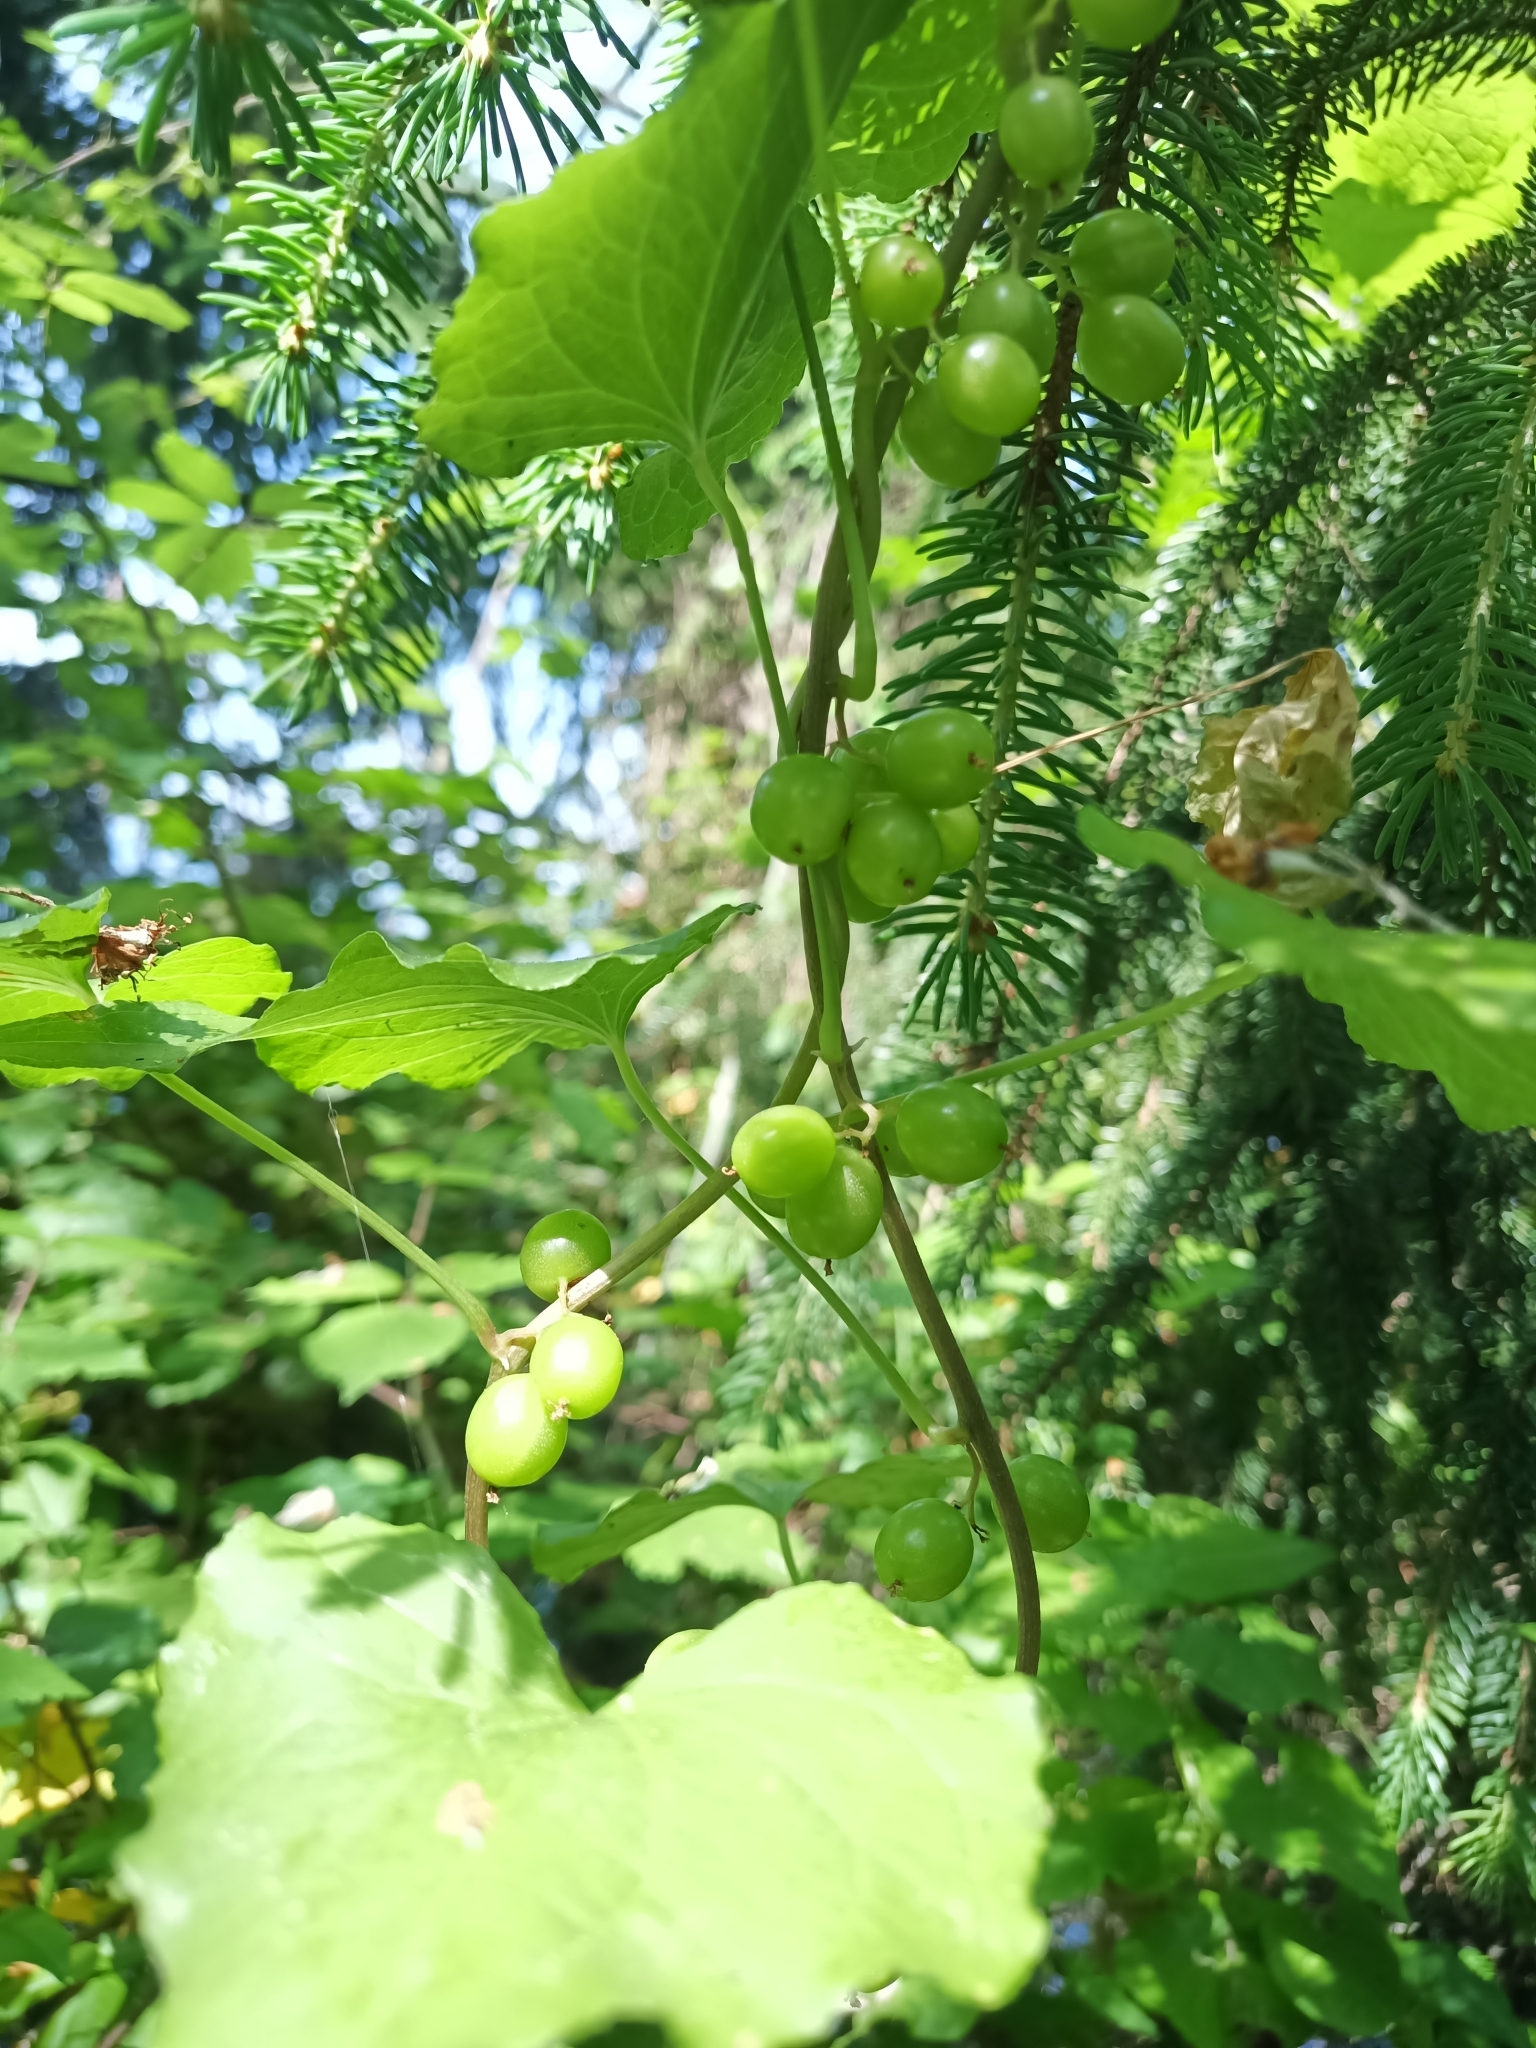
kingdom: Plantae
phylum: Tracheophyta
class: Liliopsida
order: Dioscoreales
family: Dioscoreaceae
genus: Dioscorea
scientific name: Dioscorea communis
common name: Black-bindweed
